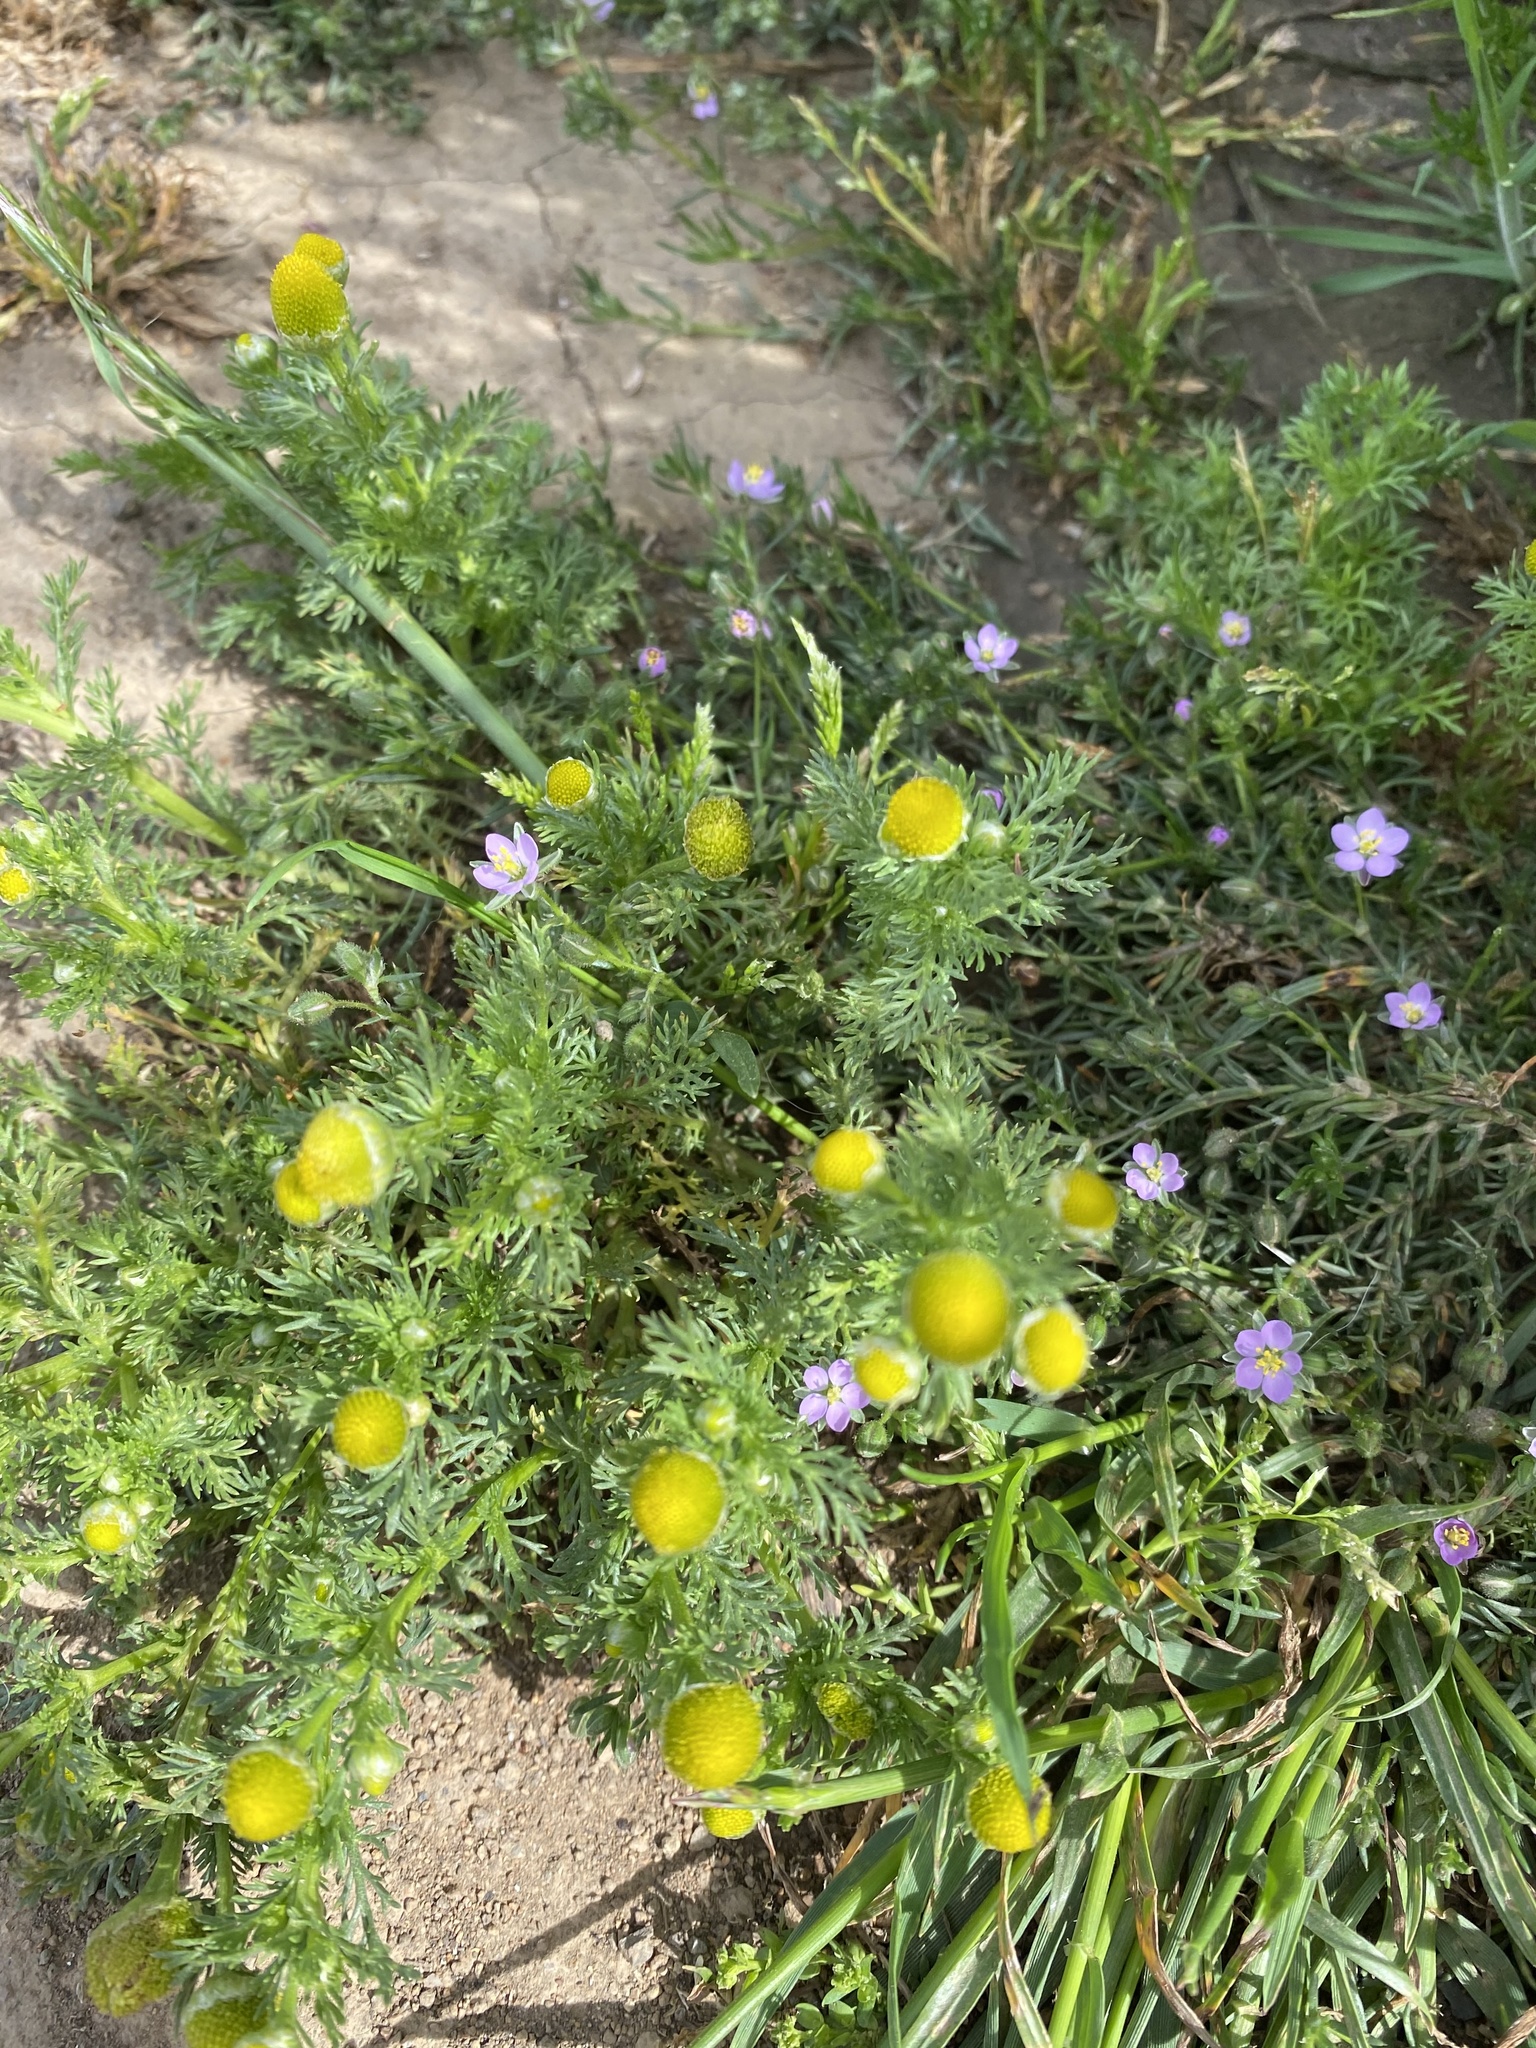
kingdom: Plantae
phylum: Tracheophyta
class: Magnoliopsida
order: Asterales
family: Asteraceae
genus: Matricaria
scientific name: Matricaria discoidea
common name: Disc mayweed
